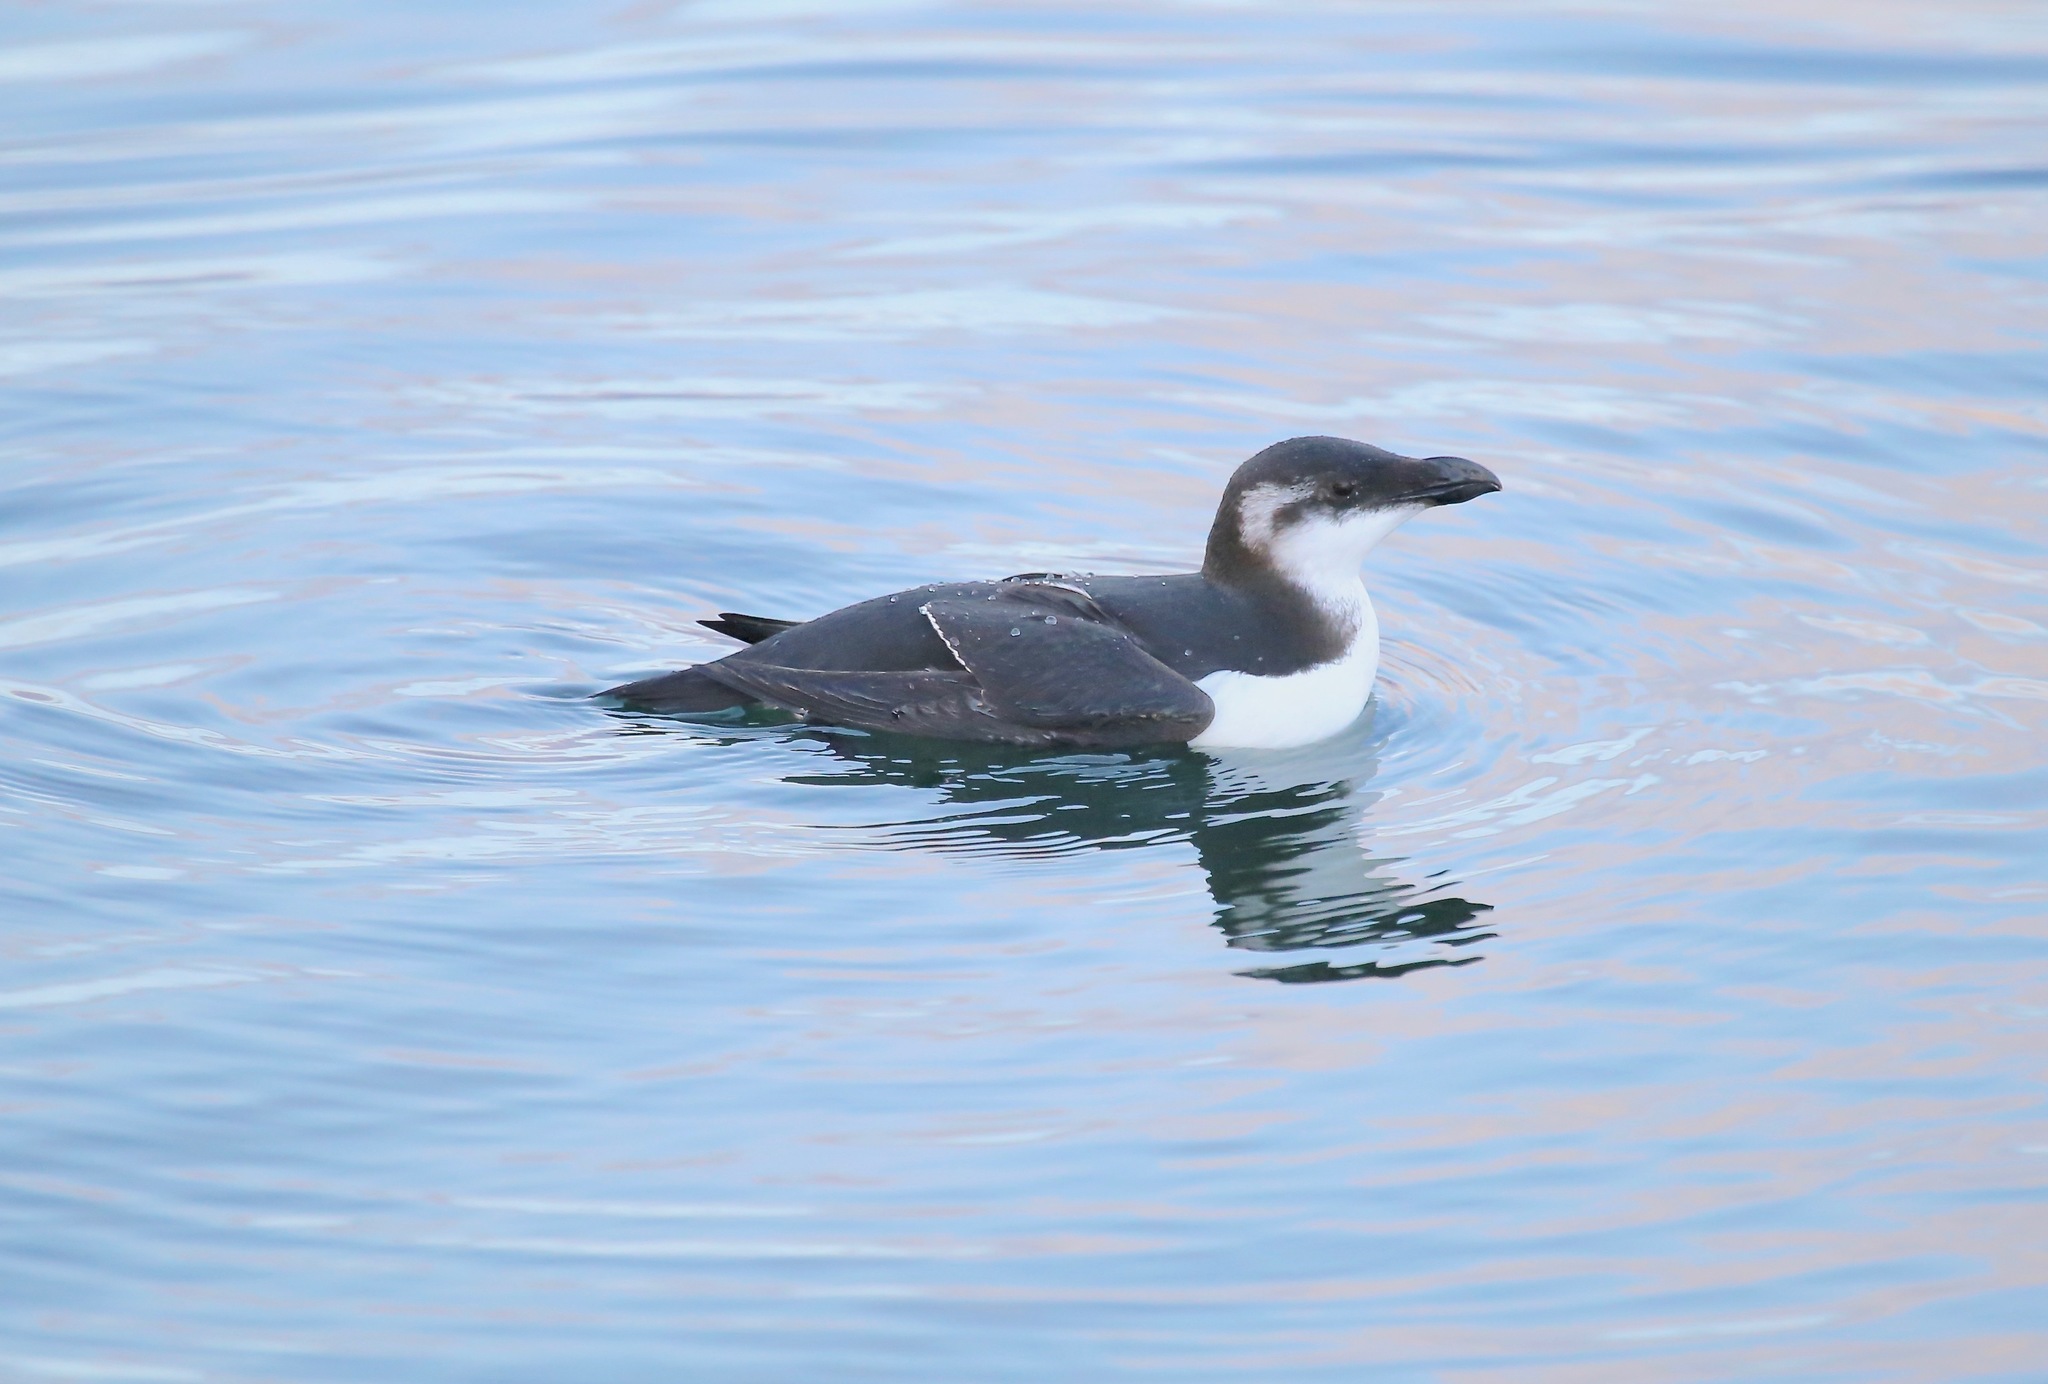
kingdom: Animalia
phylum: Chordata
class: Aves
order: Charadriiformes
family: Alcidae
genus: Alca
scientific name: Alca torda
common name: Razorbill
